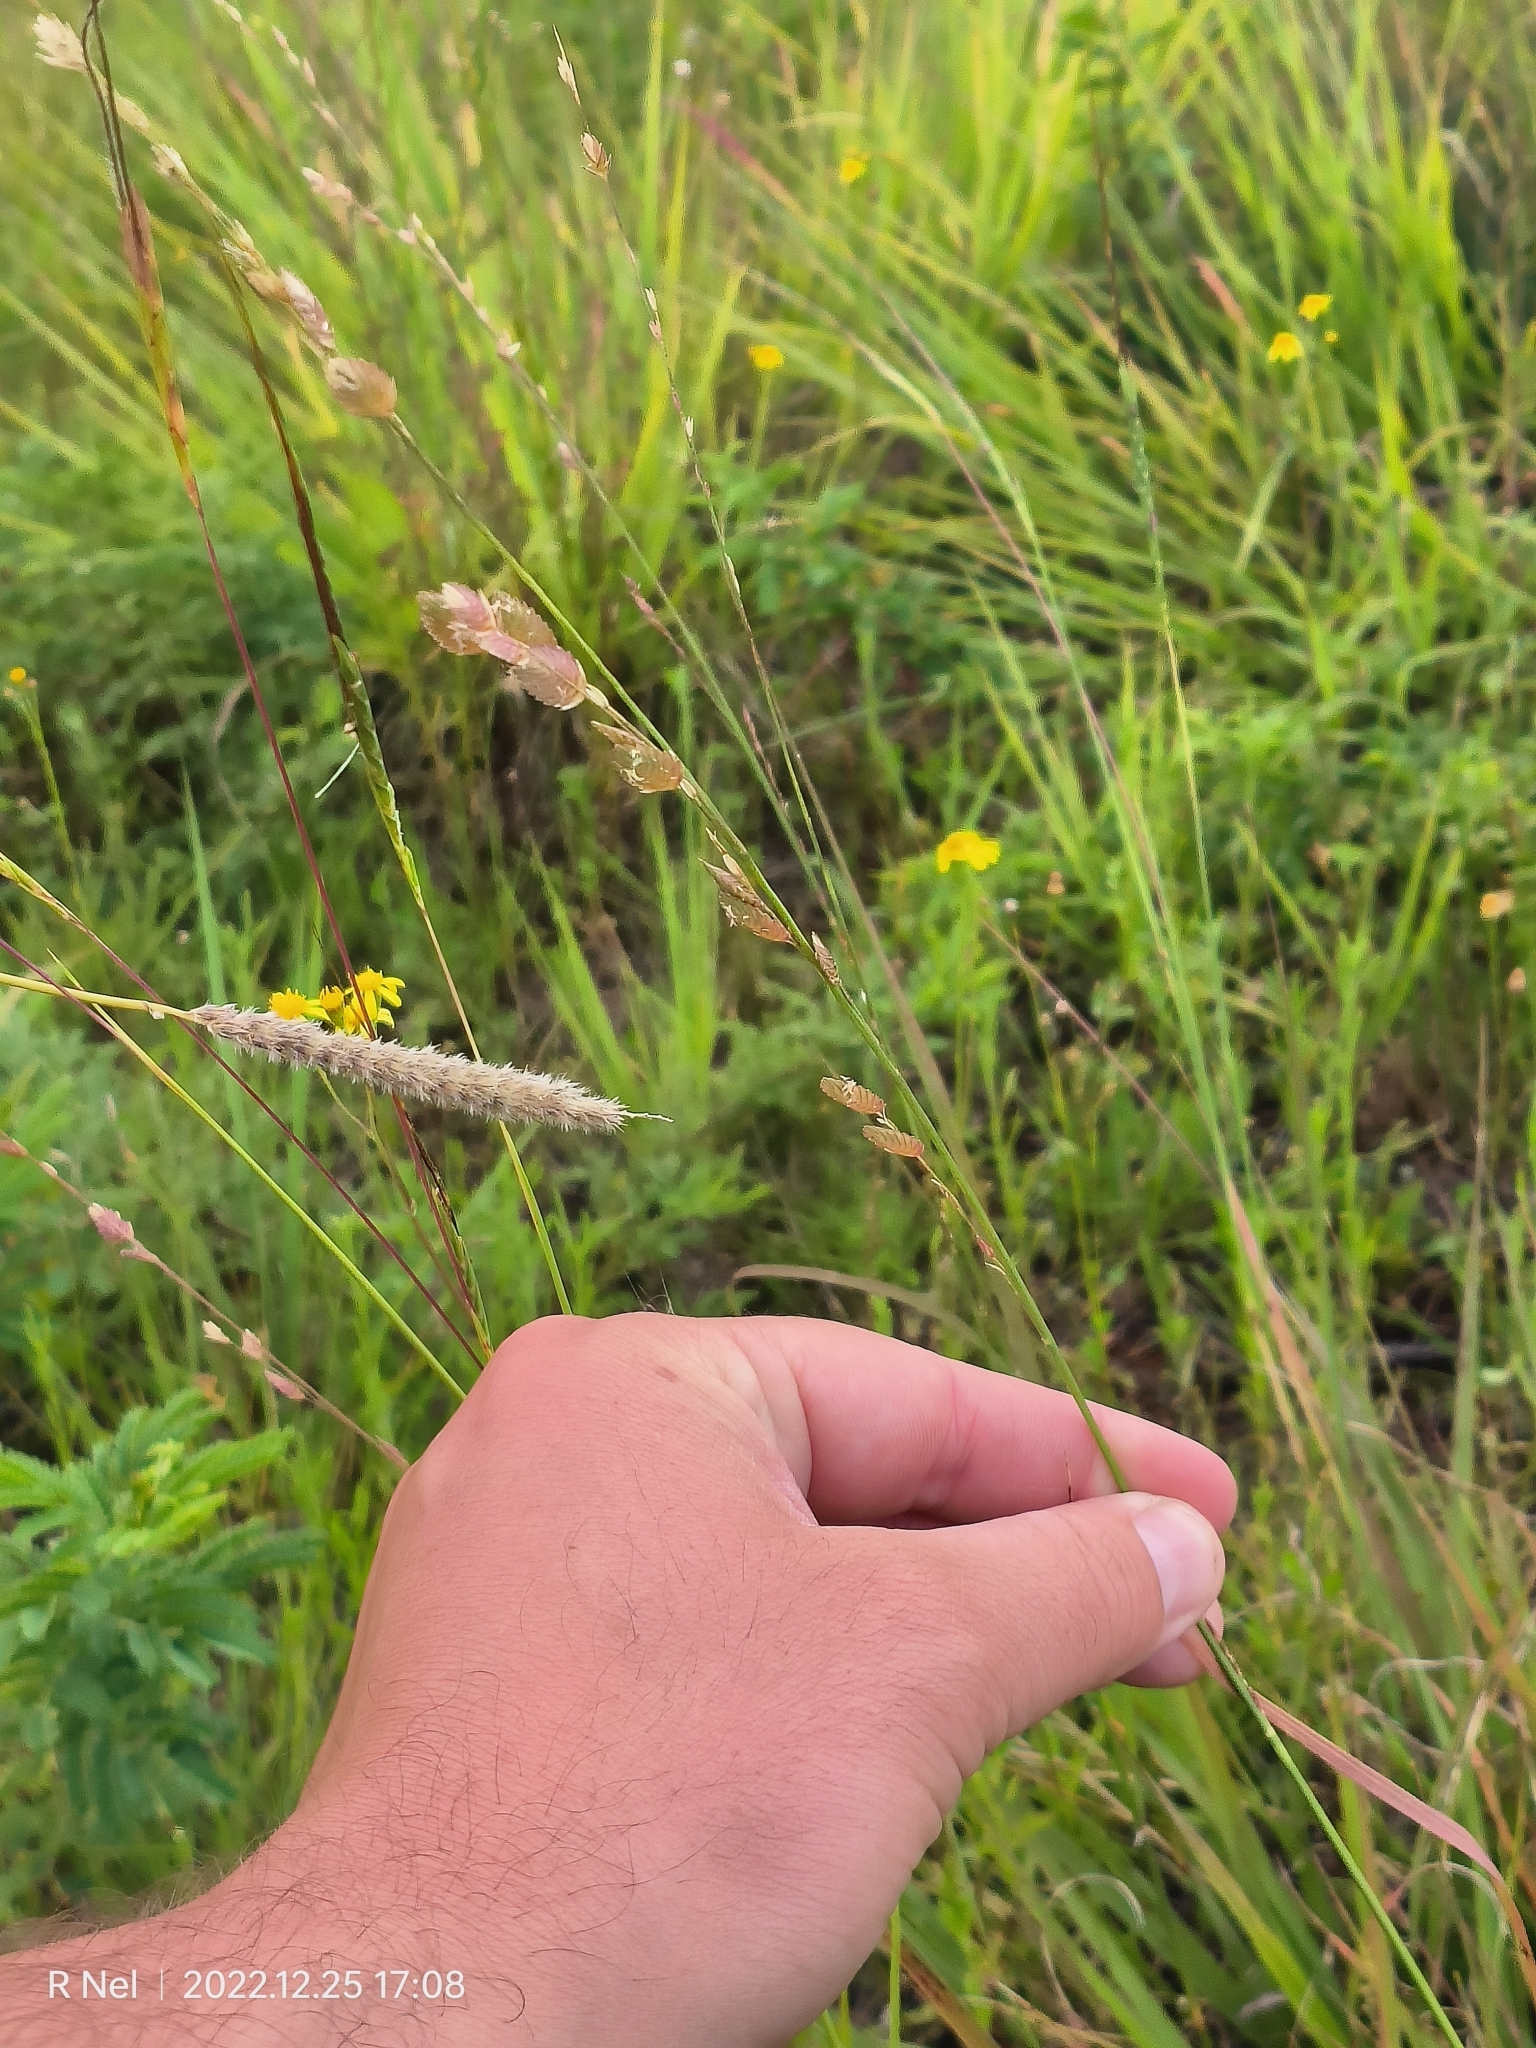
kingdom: Plantae
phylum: Tracheophyta
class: Liliopsida
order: Poales
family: Poaceae
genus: Eragrostis
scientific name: Eragrostis superba
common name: Wilman lovegrass
